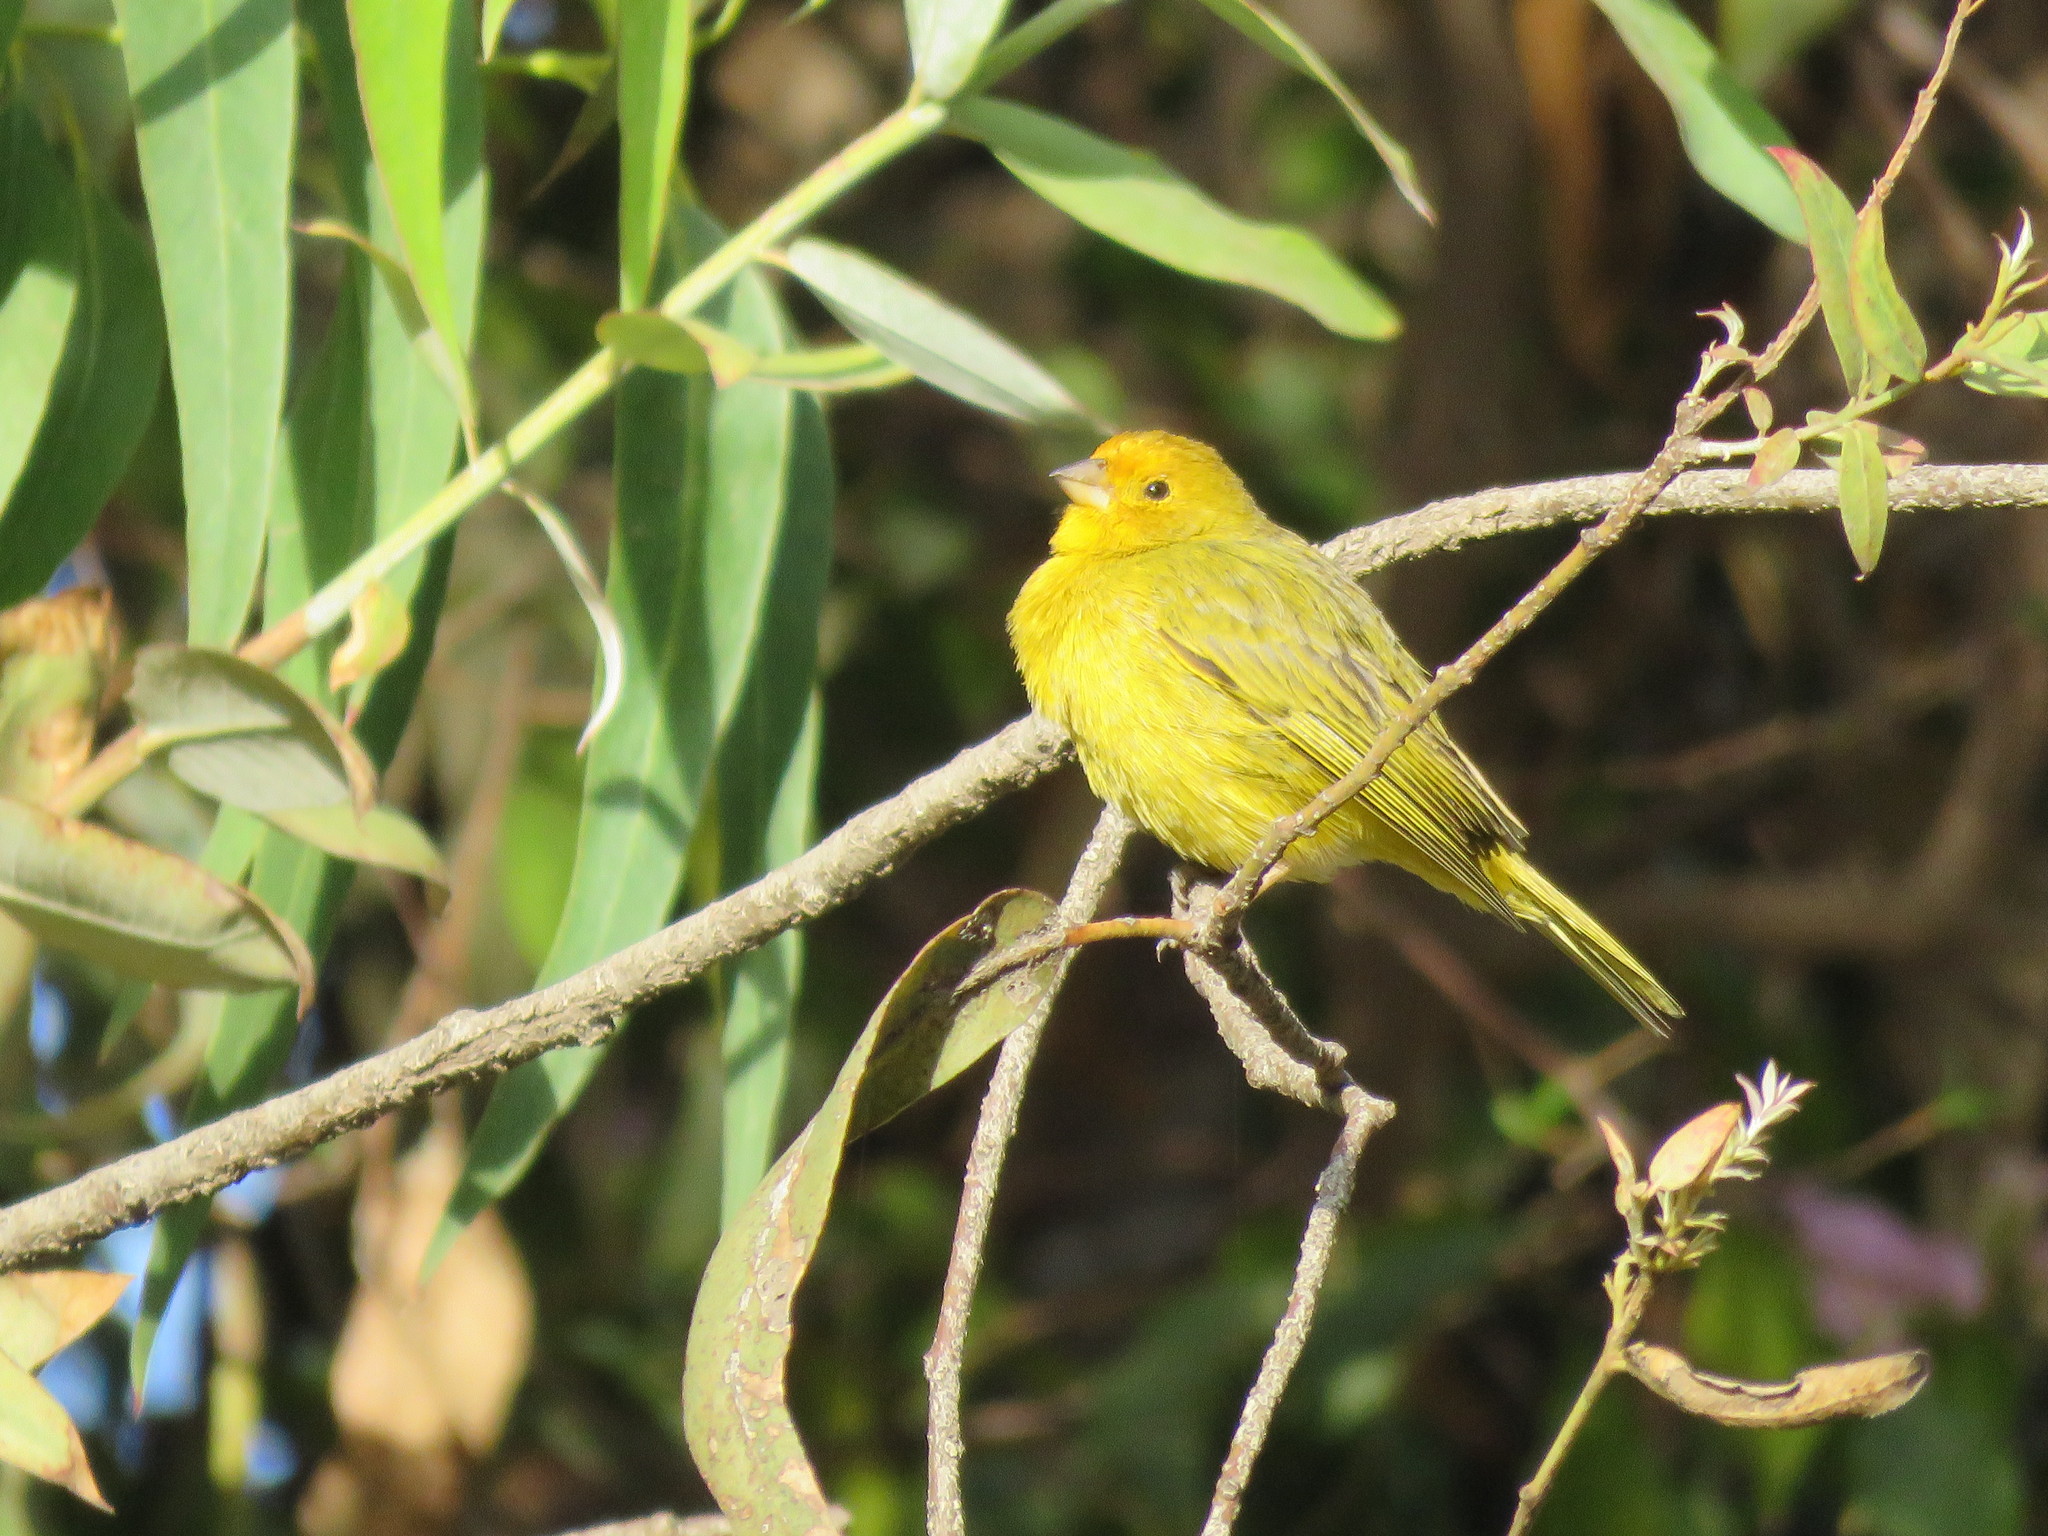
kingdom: Animalia
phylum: Chordata
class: Aves
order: Passeriformes
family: Thraupidae
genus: Sicalis
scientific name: Sicalis flaveola
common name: Saffron finch
